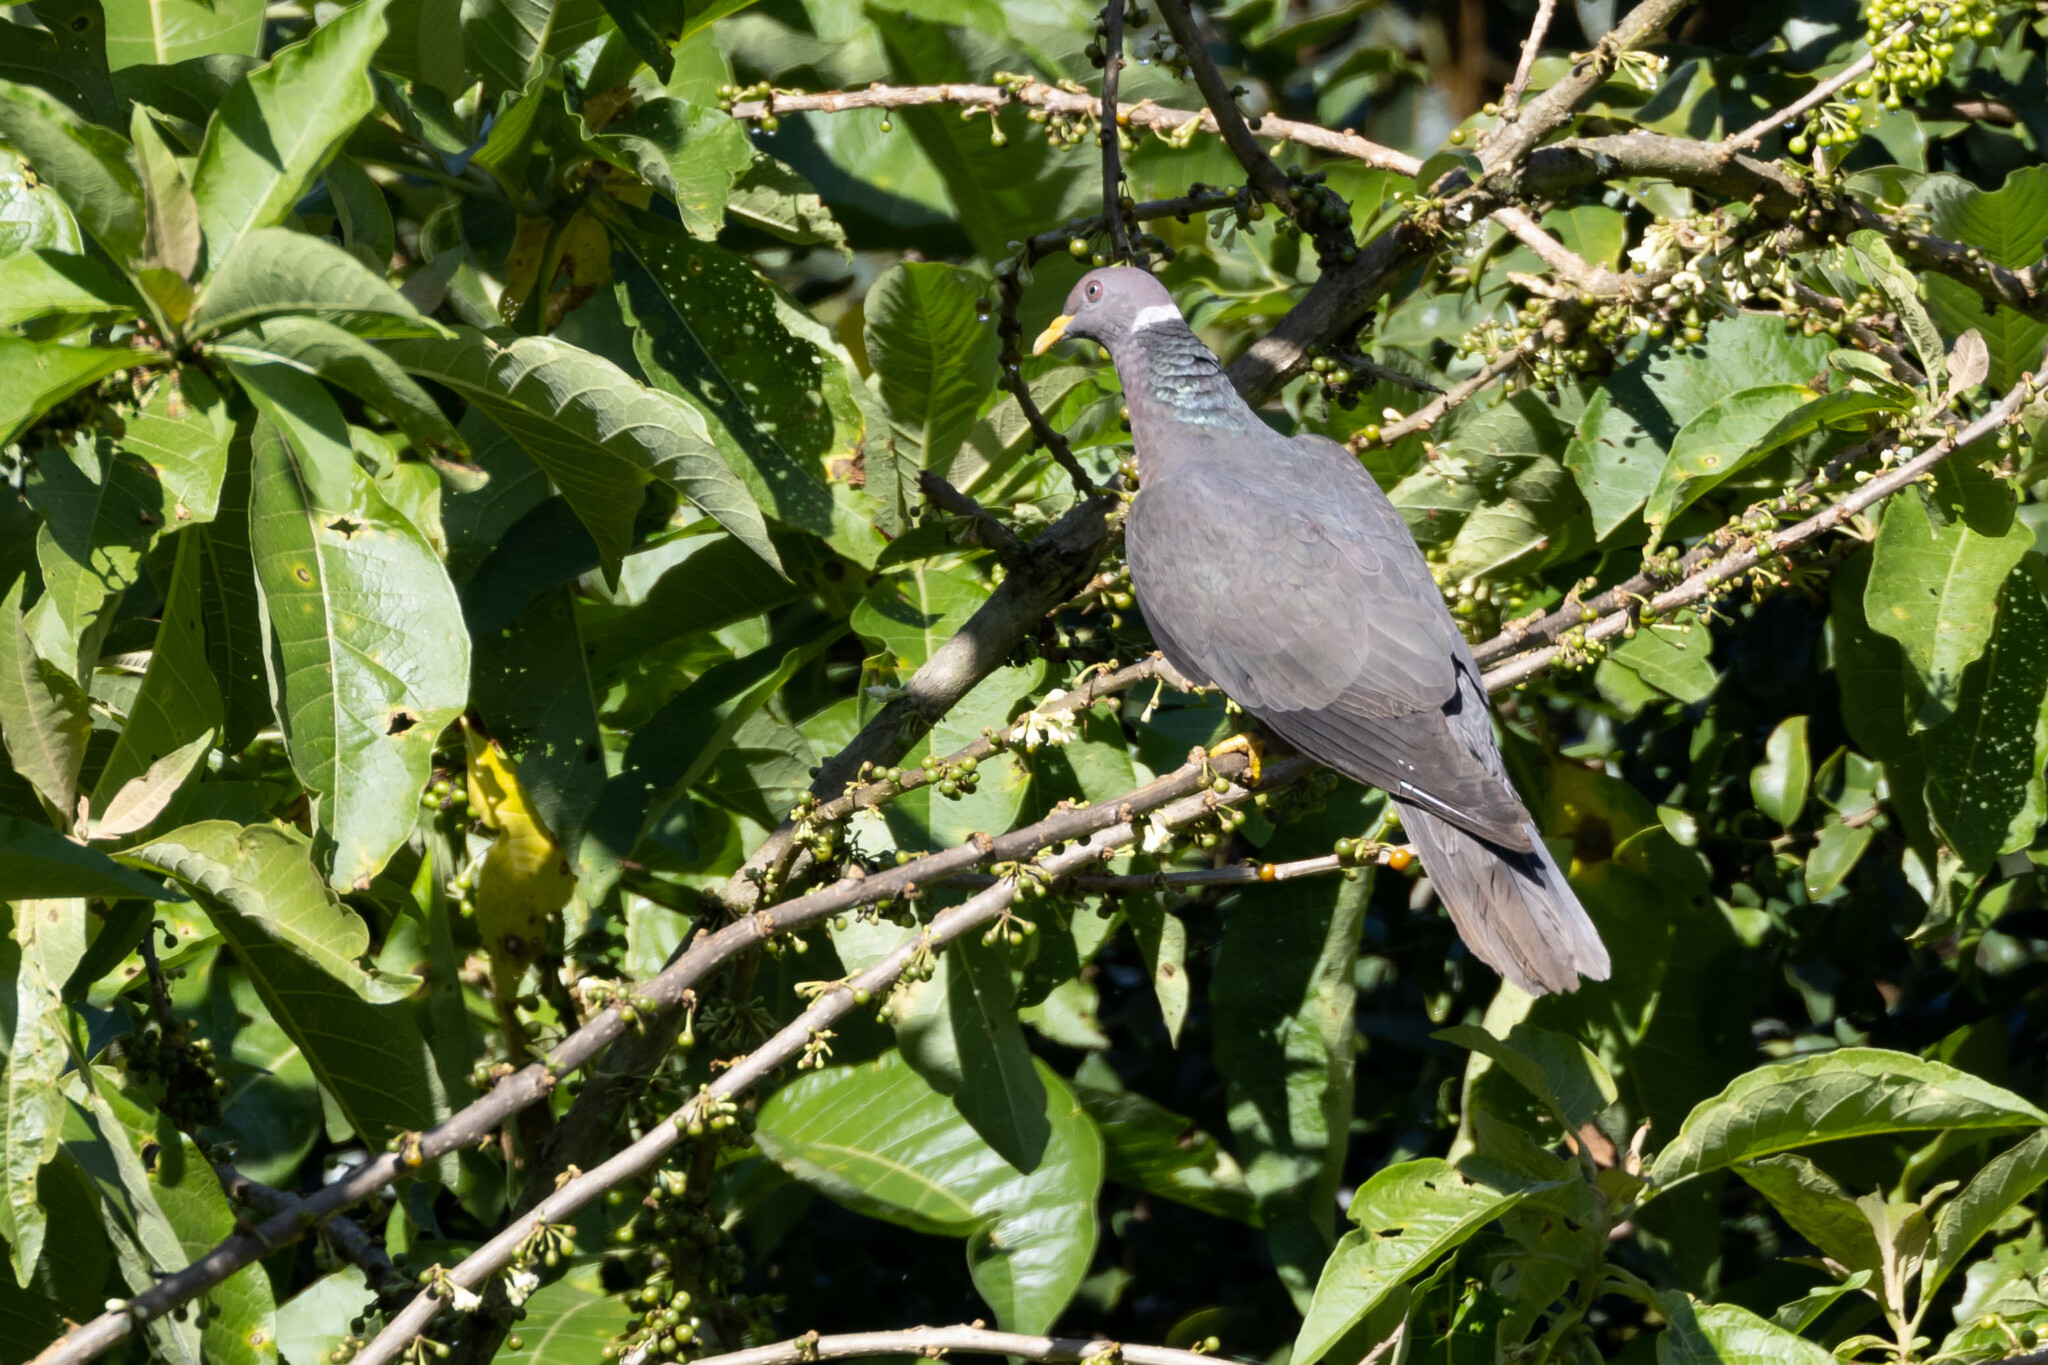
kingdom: Animalia
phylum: Chordata
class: Aves
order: Columbiformes
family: Columbidae
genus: Patagioenas
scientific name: Patagioenas fasciata
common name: Band-tailed pigeon
